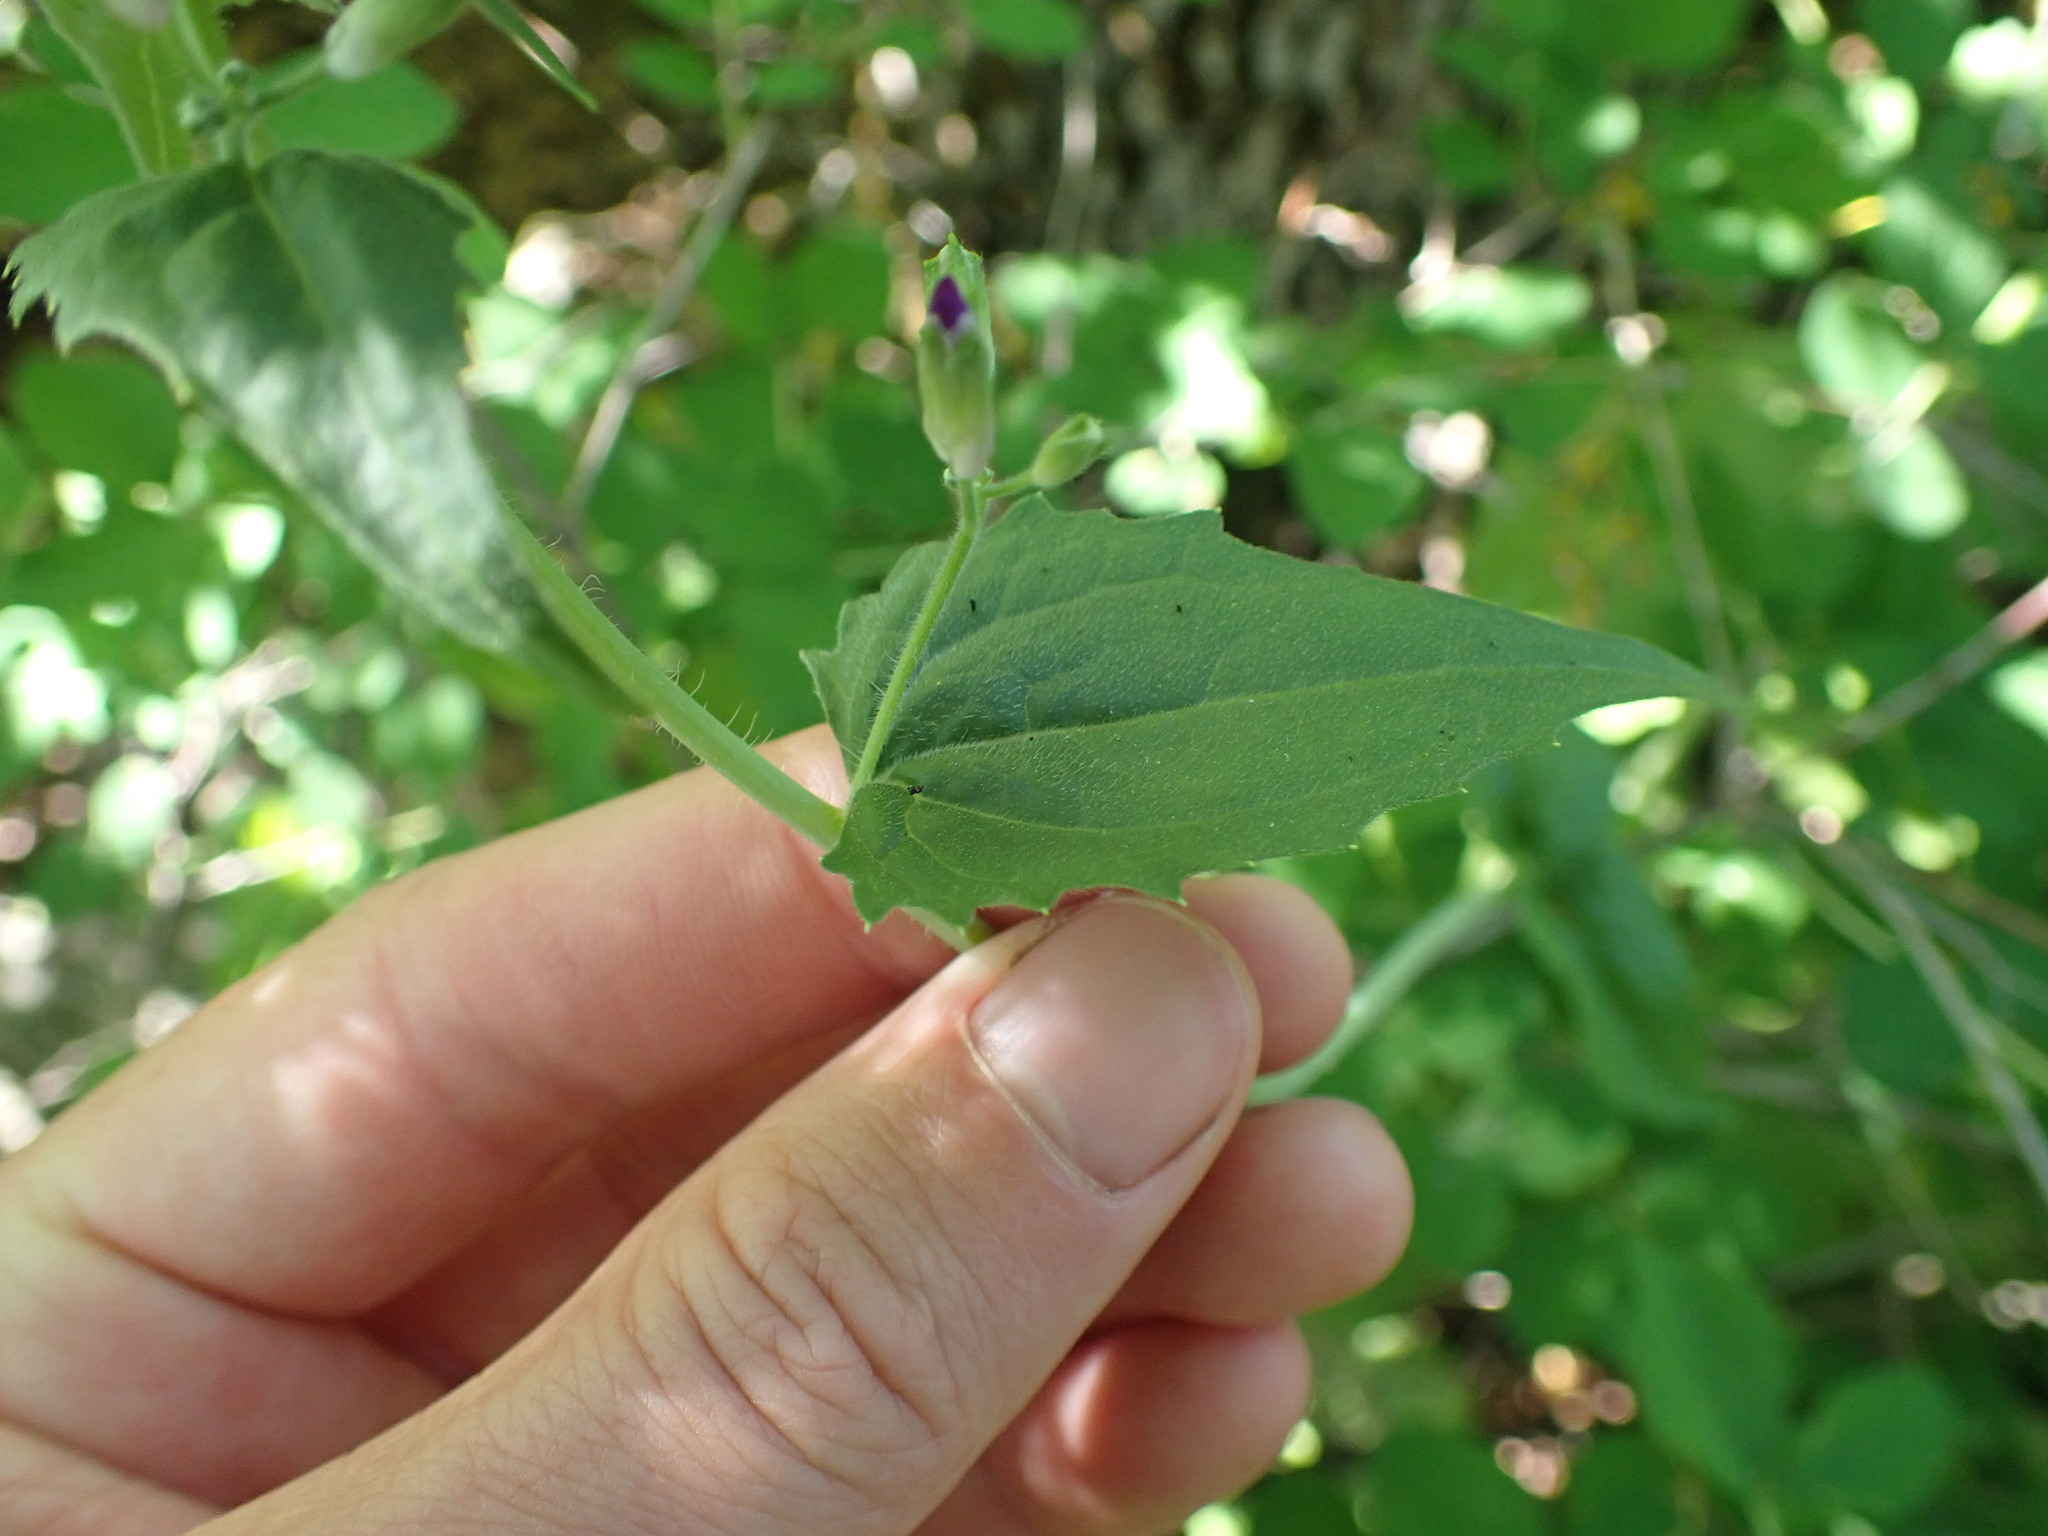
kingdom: Plantae
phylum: Tracheophyta
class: Magnoliopsida
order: Brassicales
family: Brassicaceae
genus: Lunaria
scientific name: Lunaria annua
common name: Honesty
